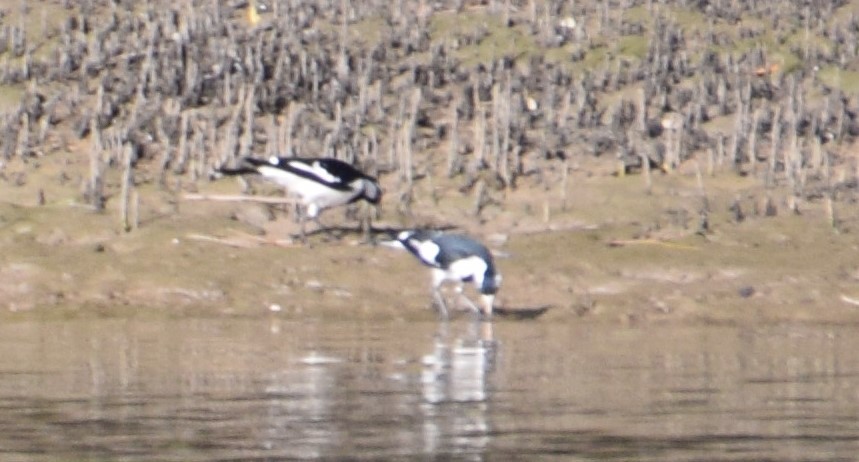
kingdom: Animalia
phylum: Chordata
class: Aves
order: Passeriformes
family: Monarchidae
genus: Grallina
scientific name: Grallina cyanoleuca
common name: Magpie-lark
